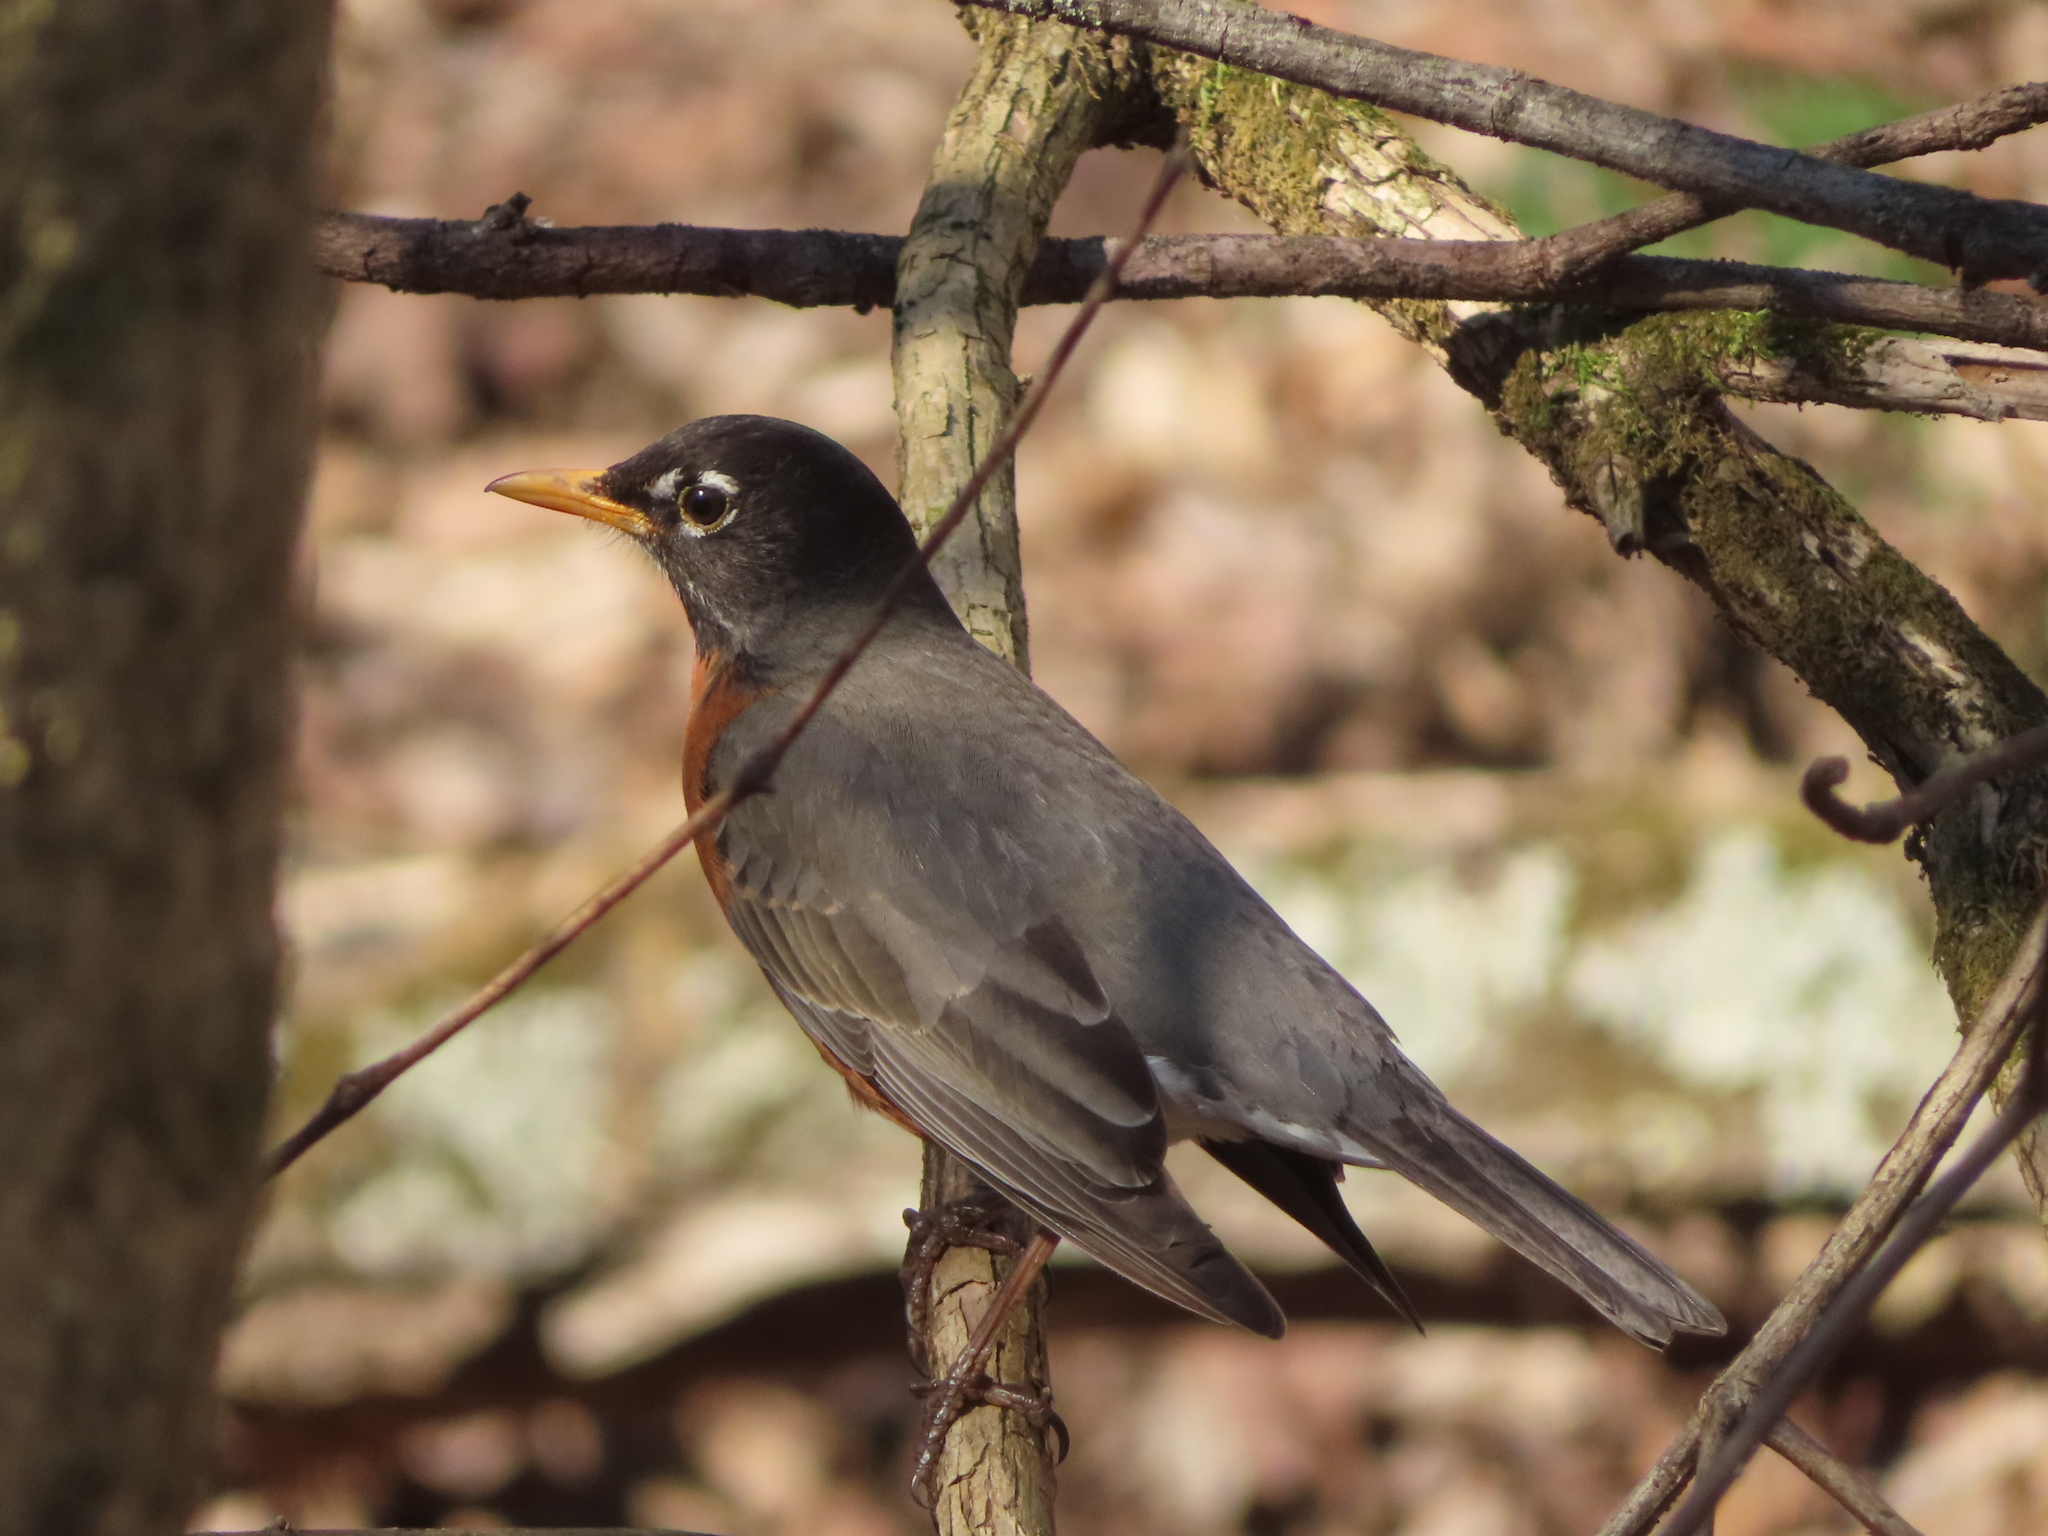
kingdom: Animalia
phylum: Chordata
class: Aves
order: Passeriformes
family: Turdidae
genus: Turdus
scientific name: Turdus migratorius
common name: American robin
